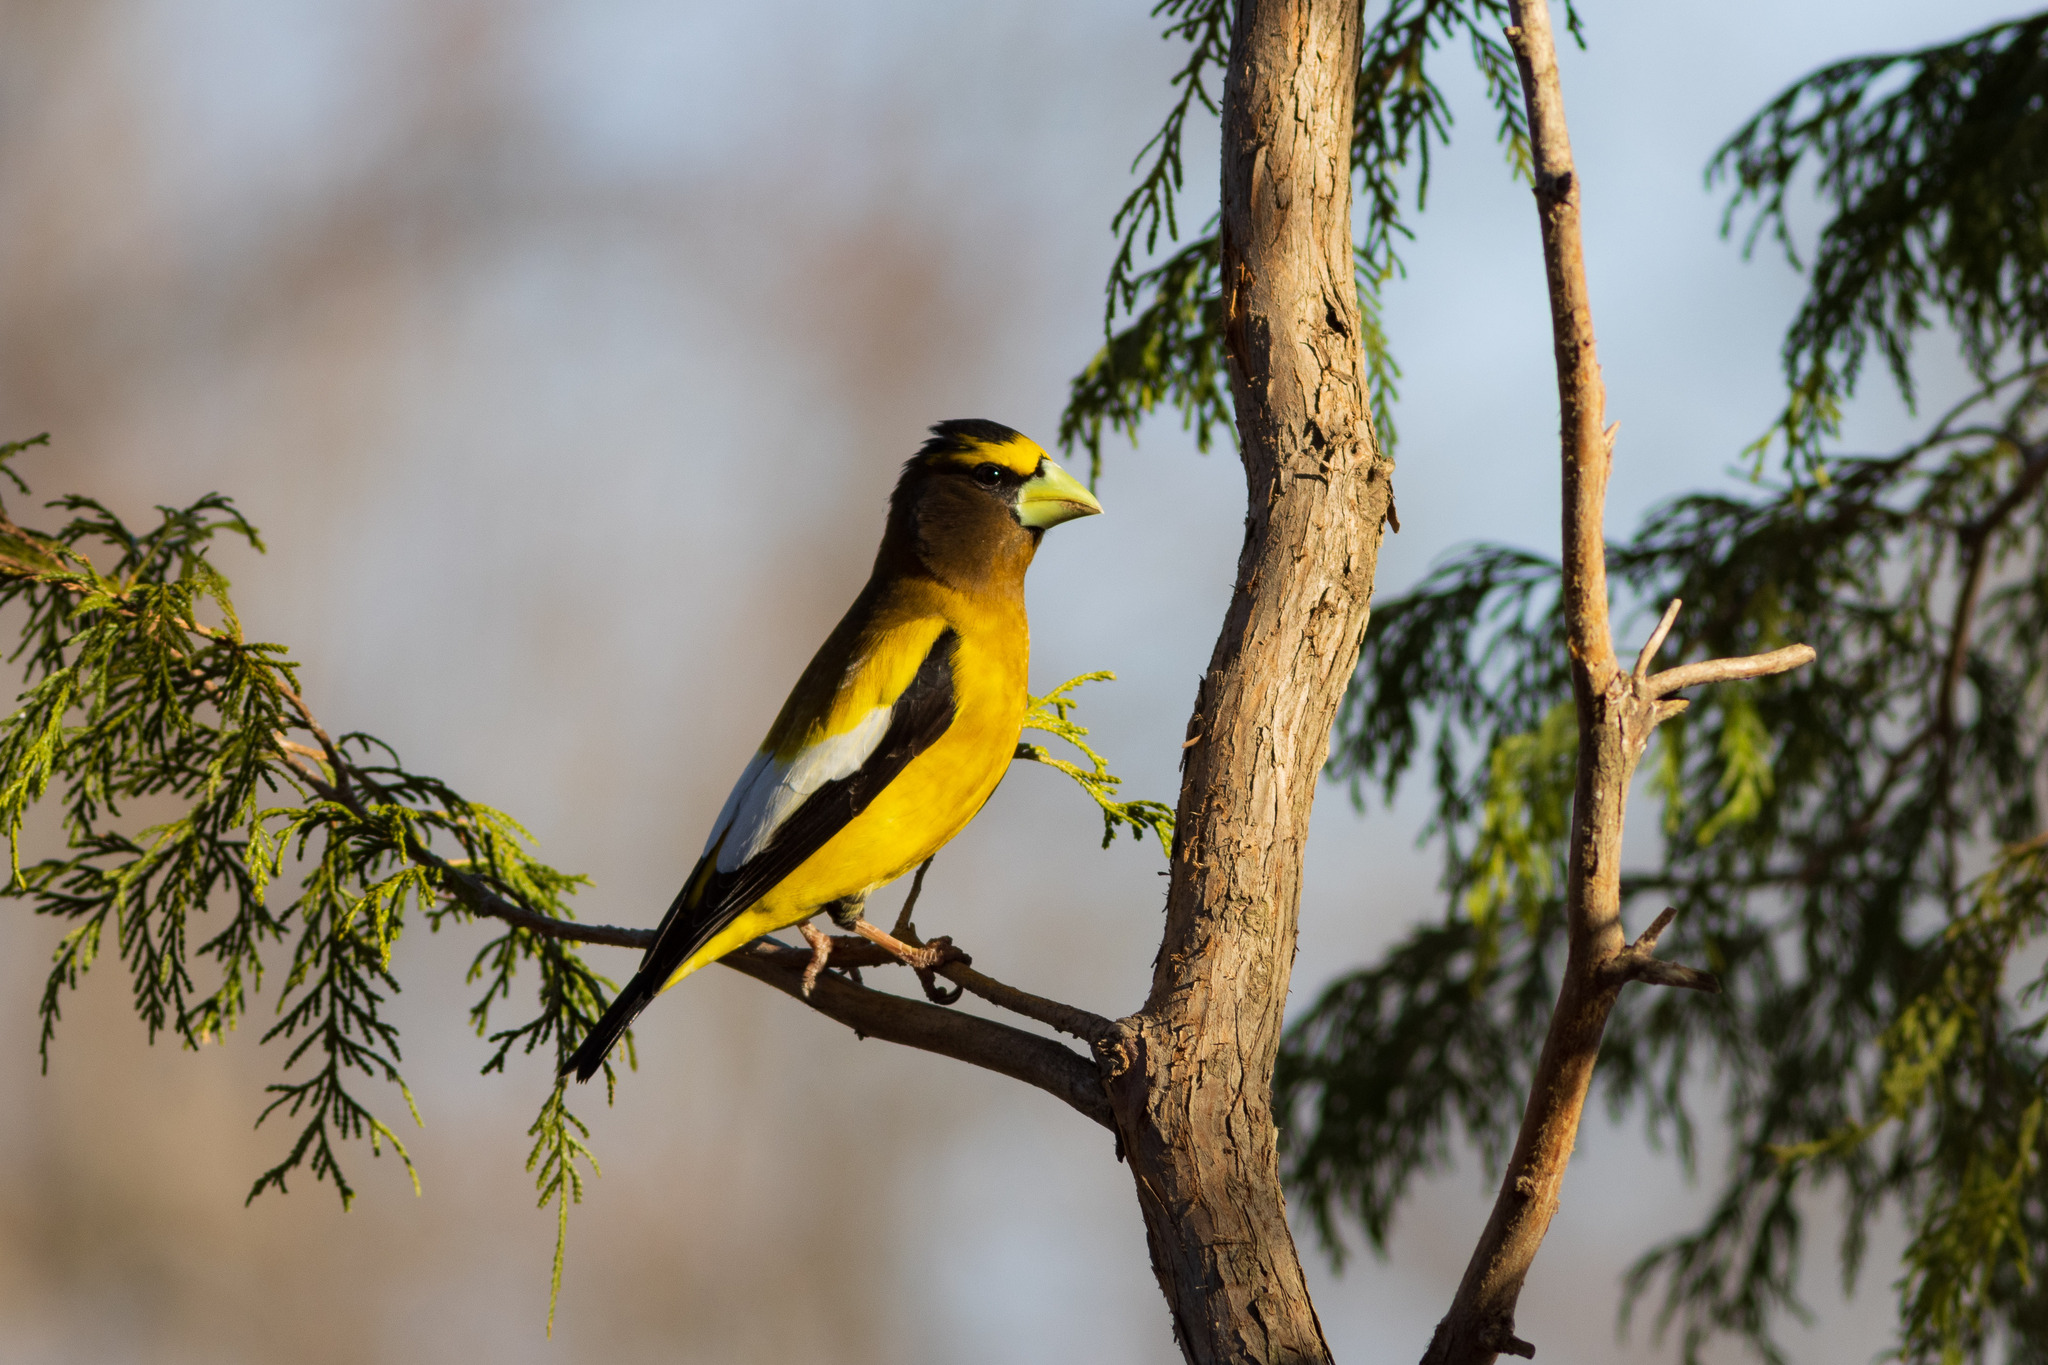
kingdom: Animalia
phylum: Chordata
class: Aves
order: Passeriformes
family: Fringillidae
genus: Hesperiphona
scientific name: Hesperiphona vespertina
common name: Evening grosbeak
